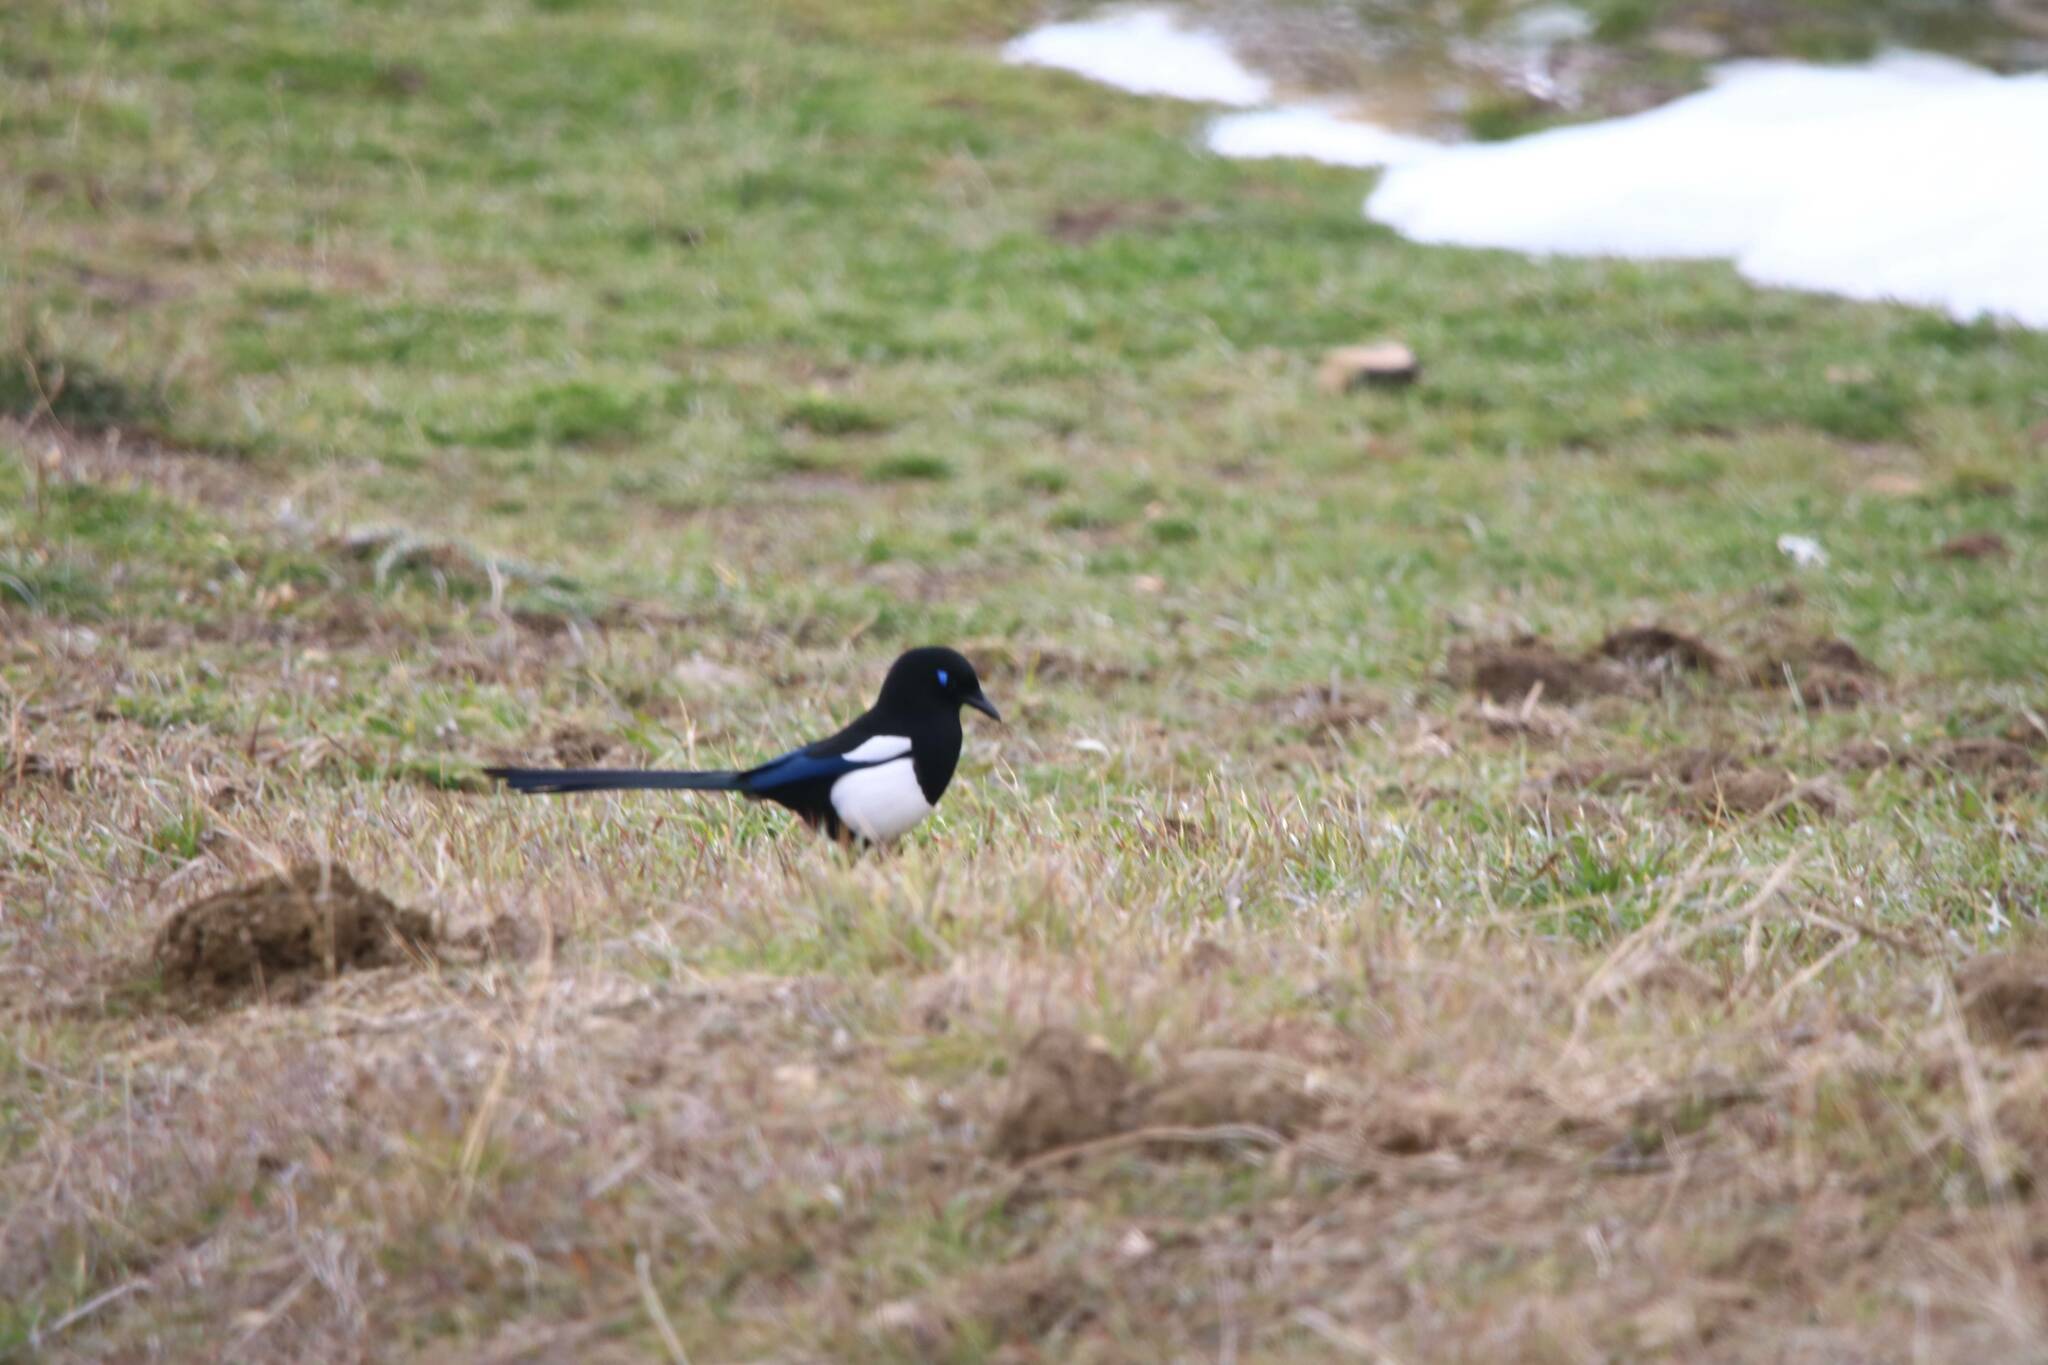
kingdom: Animalia
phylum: Chordata
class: Aves
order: Passeriformes
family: Corvidae
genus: Pica
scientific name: Pica mauritanica
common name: Maghreb magpie
